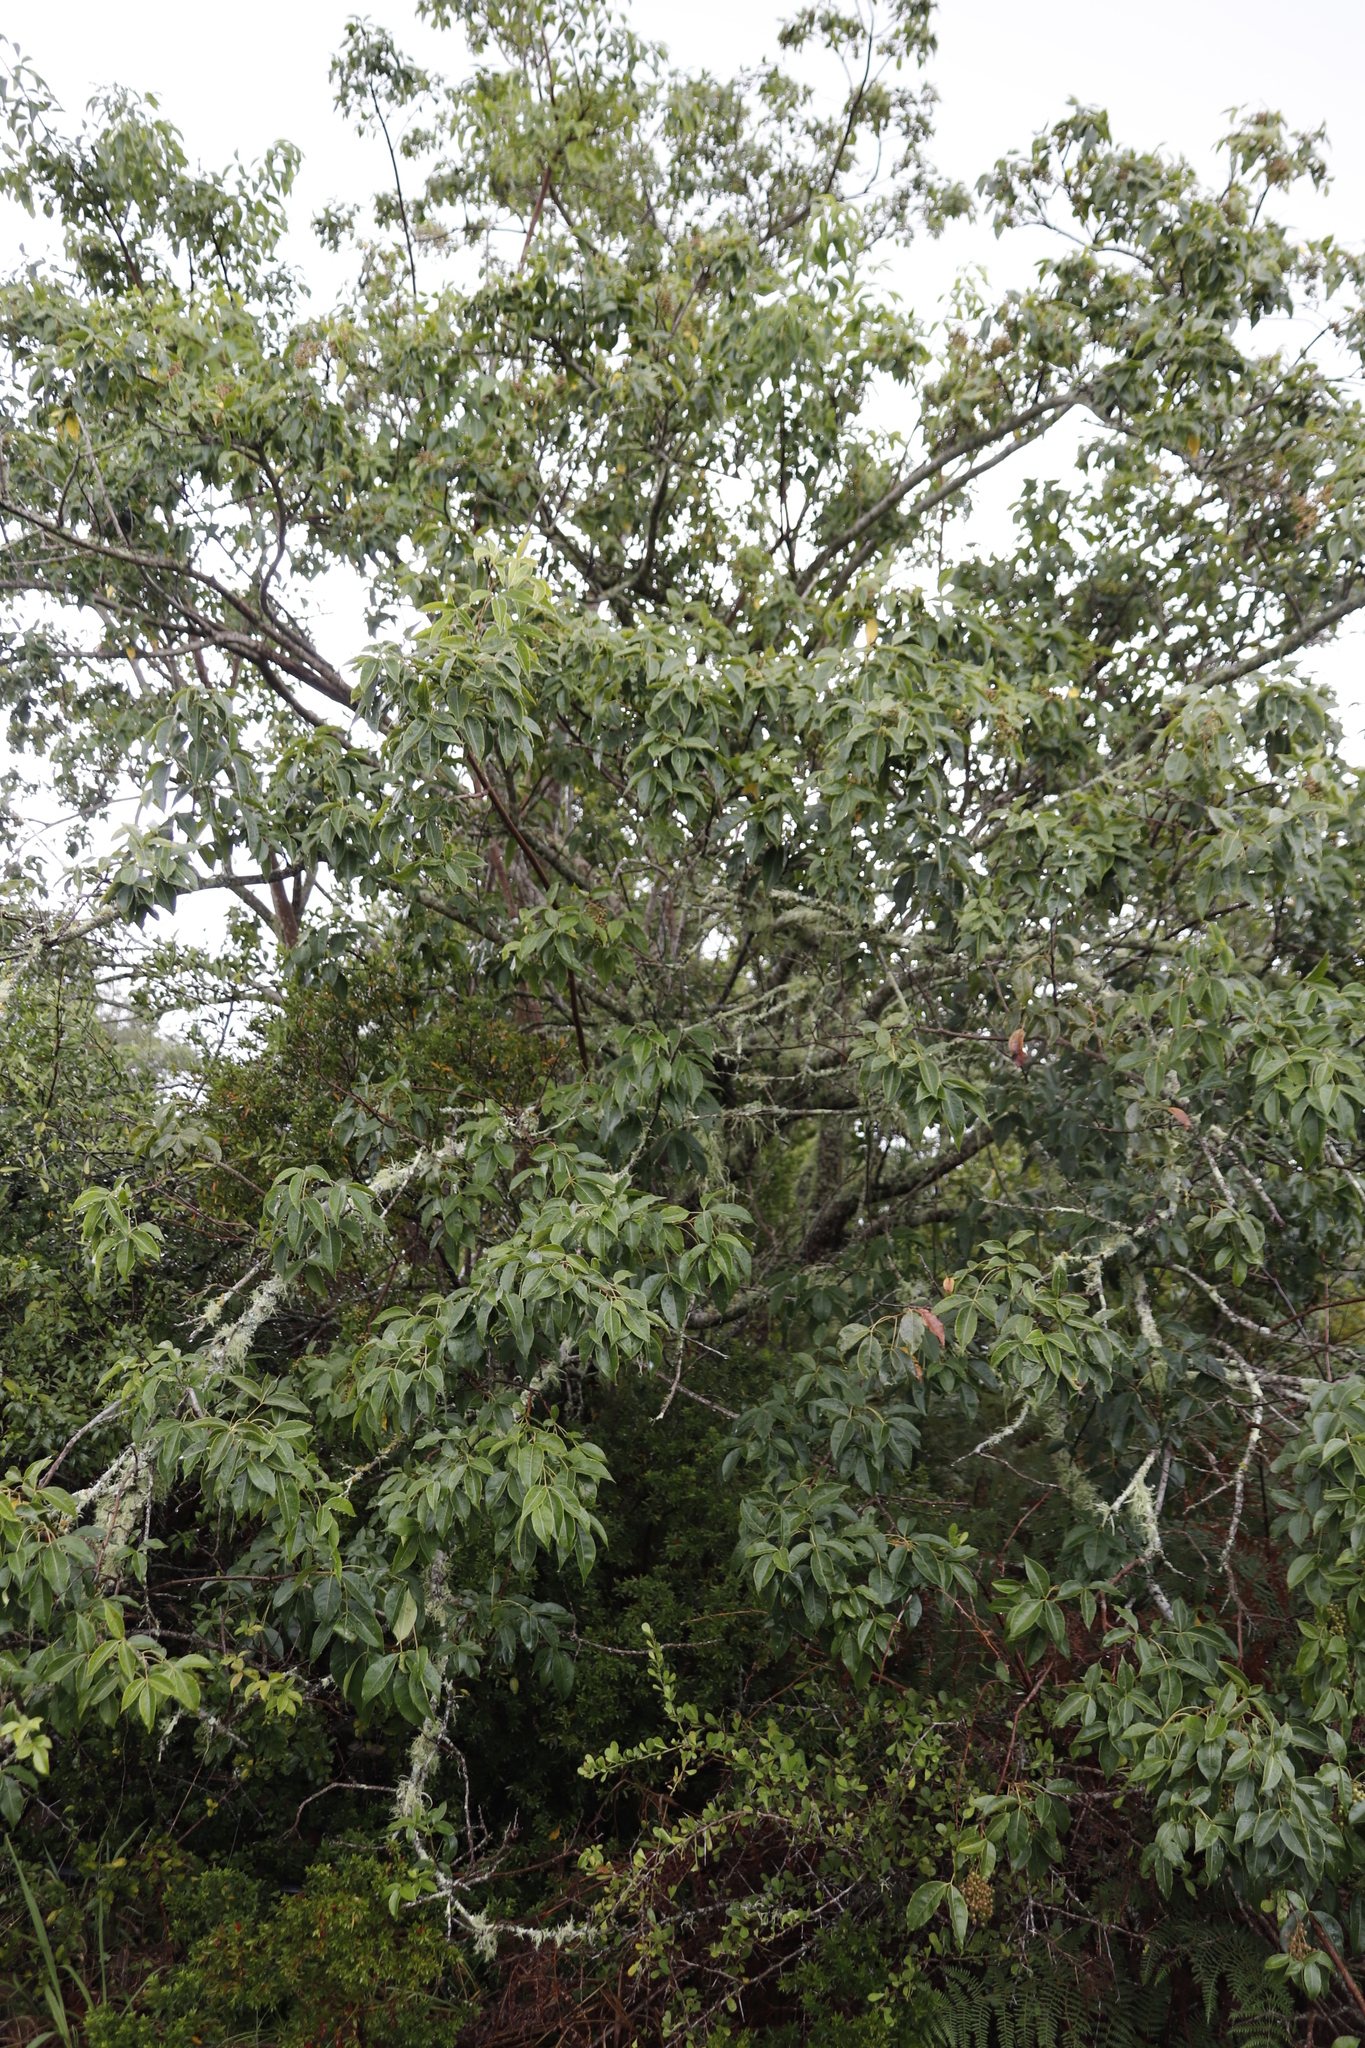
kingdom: Plantae
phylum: Tracheophyta
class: Magnoliopsida
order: Sapindales
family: Anacardiaceae
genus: Searsia
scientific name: Searsia chirindensis
